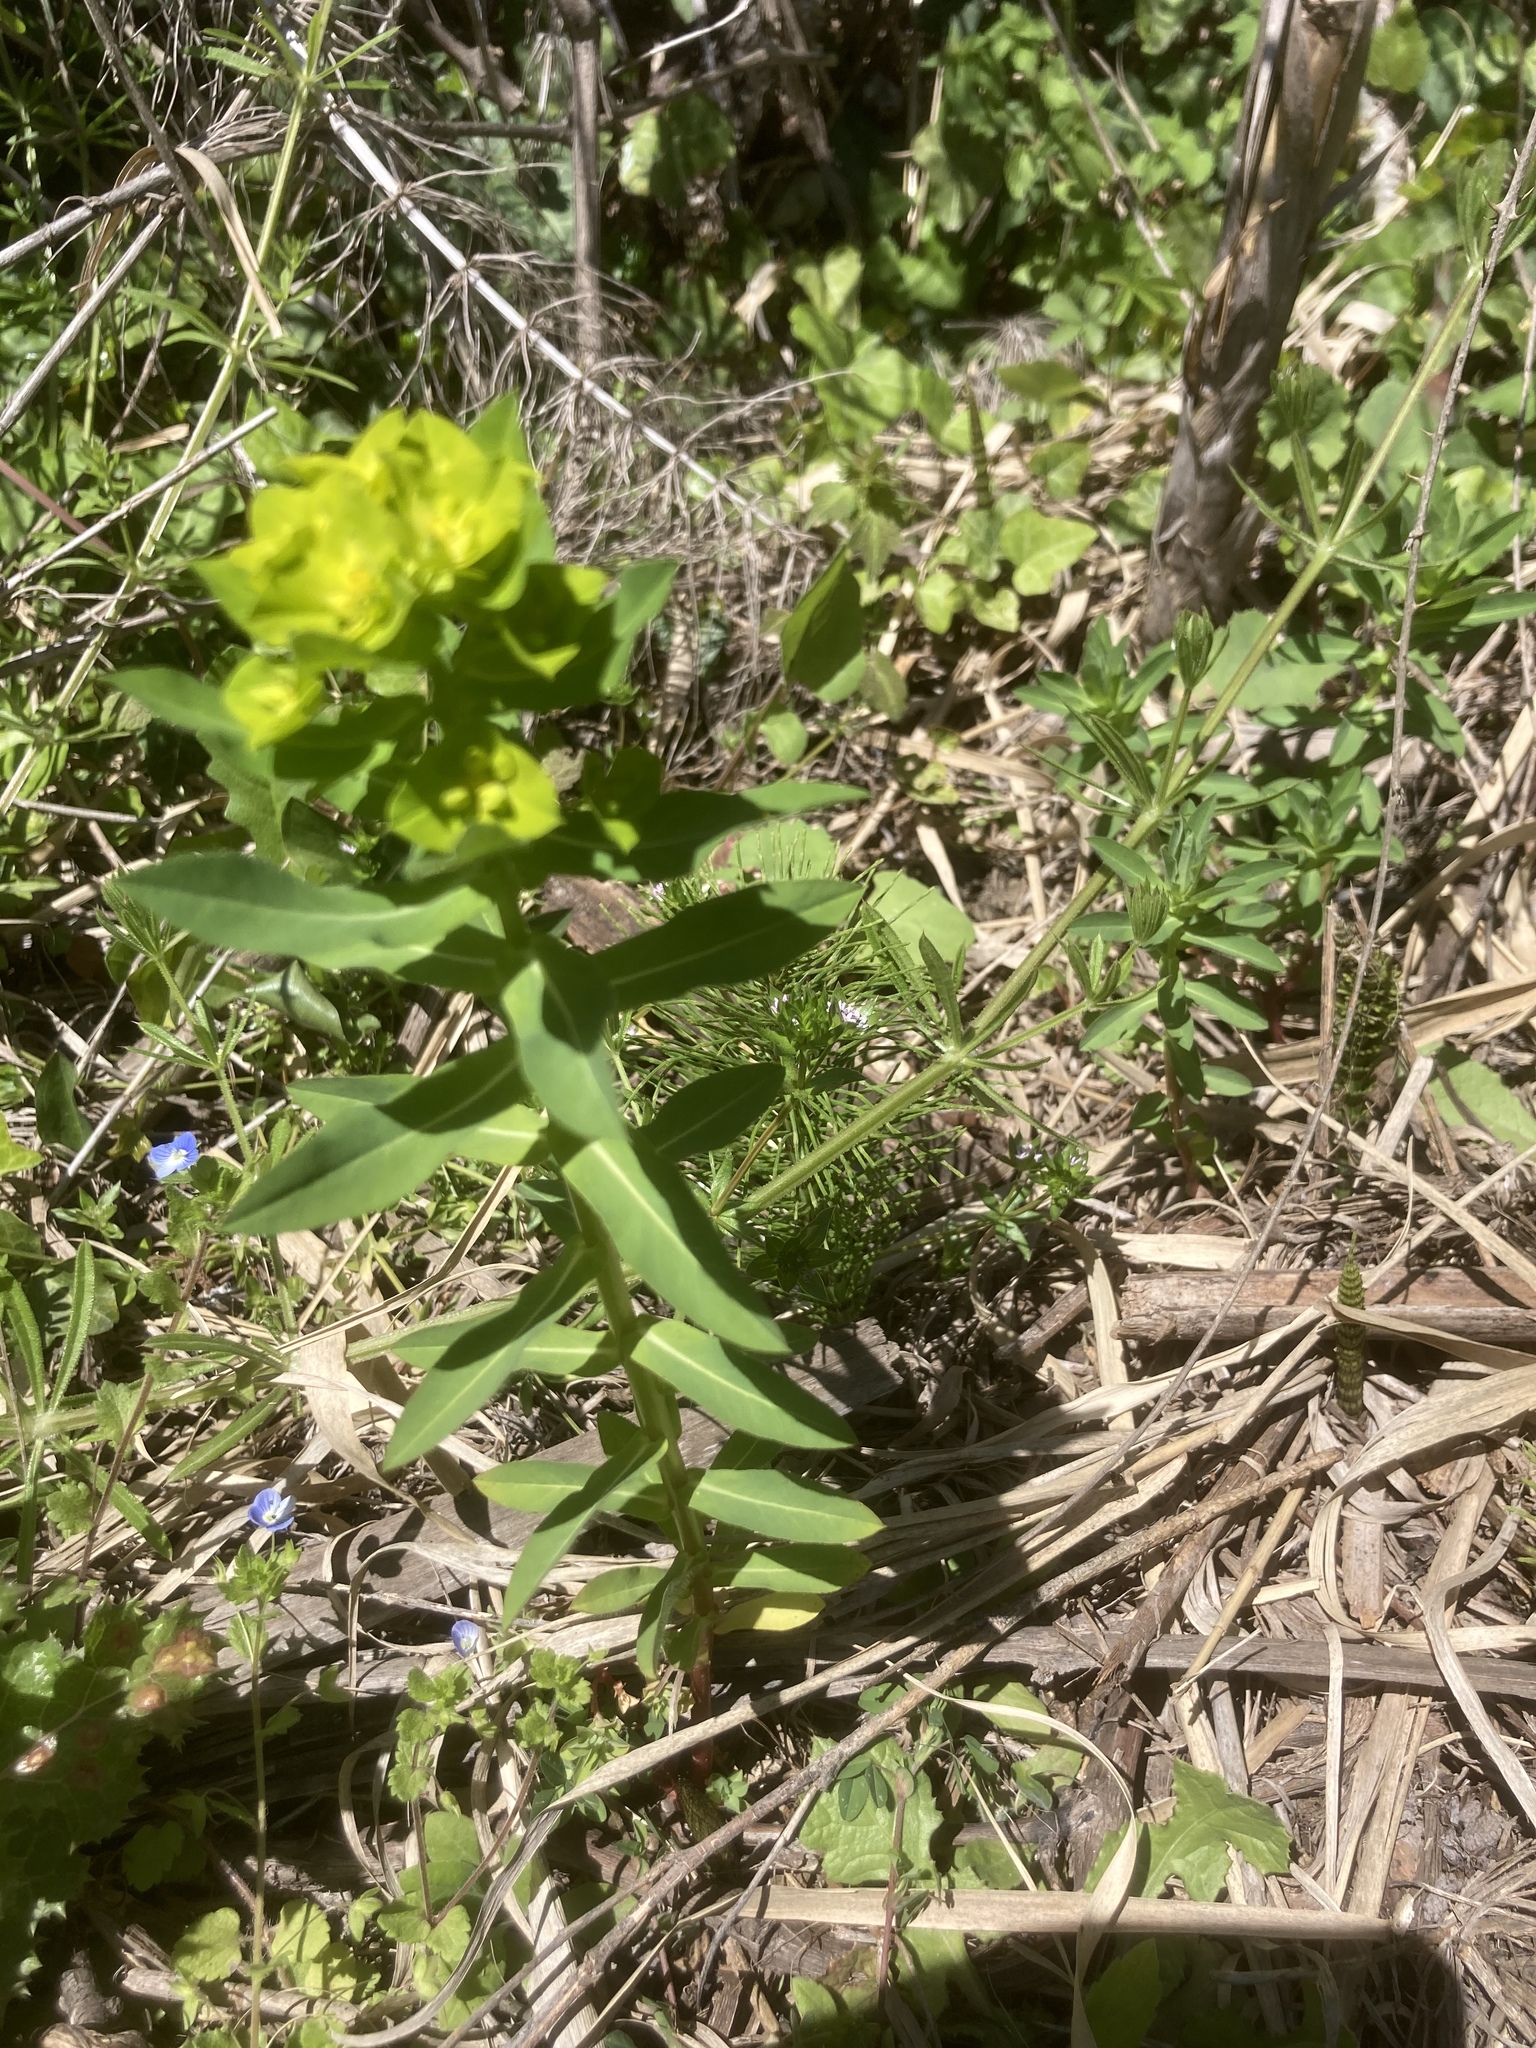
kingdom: Plantae
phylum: Tracheophyta
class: Magnoliopsida
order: Lamiales
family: Plantaginaceae
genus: Veronica
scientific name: Veronica persica
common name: Common field-speedwell
